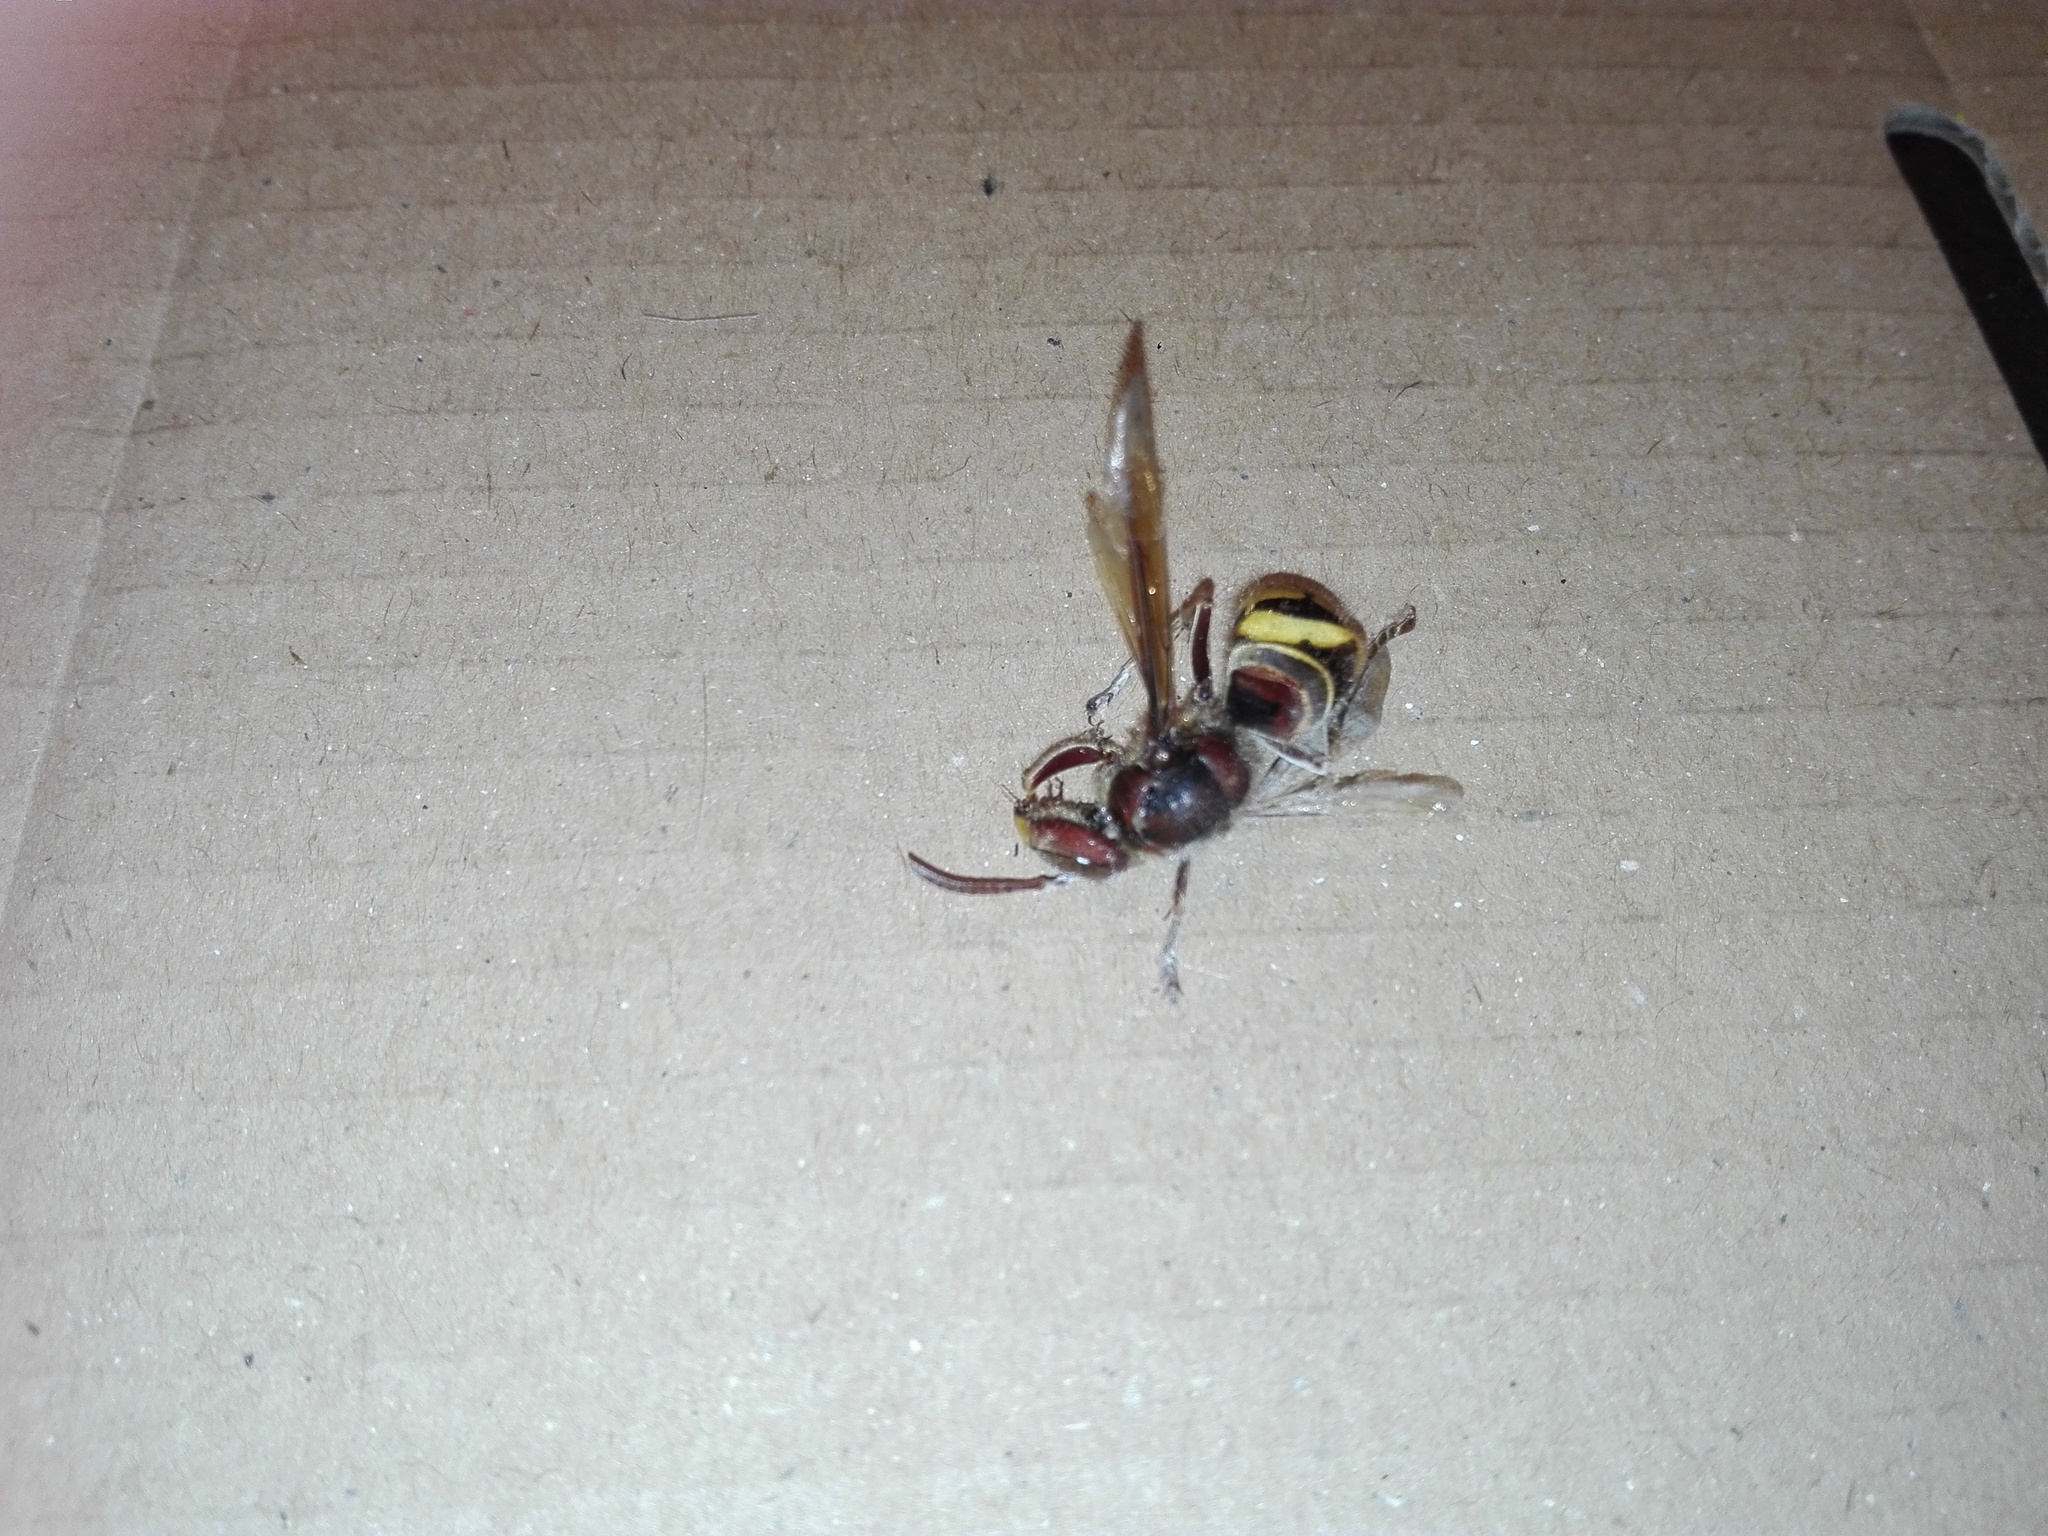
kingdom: Animalia
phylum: Arthropoda
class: Insecta
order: Hymenoptera
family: Vespidae
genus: Vespa
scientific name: Vespa crabro
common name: Hornet
